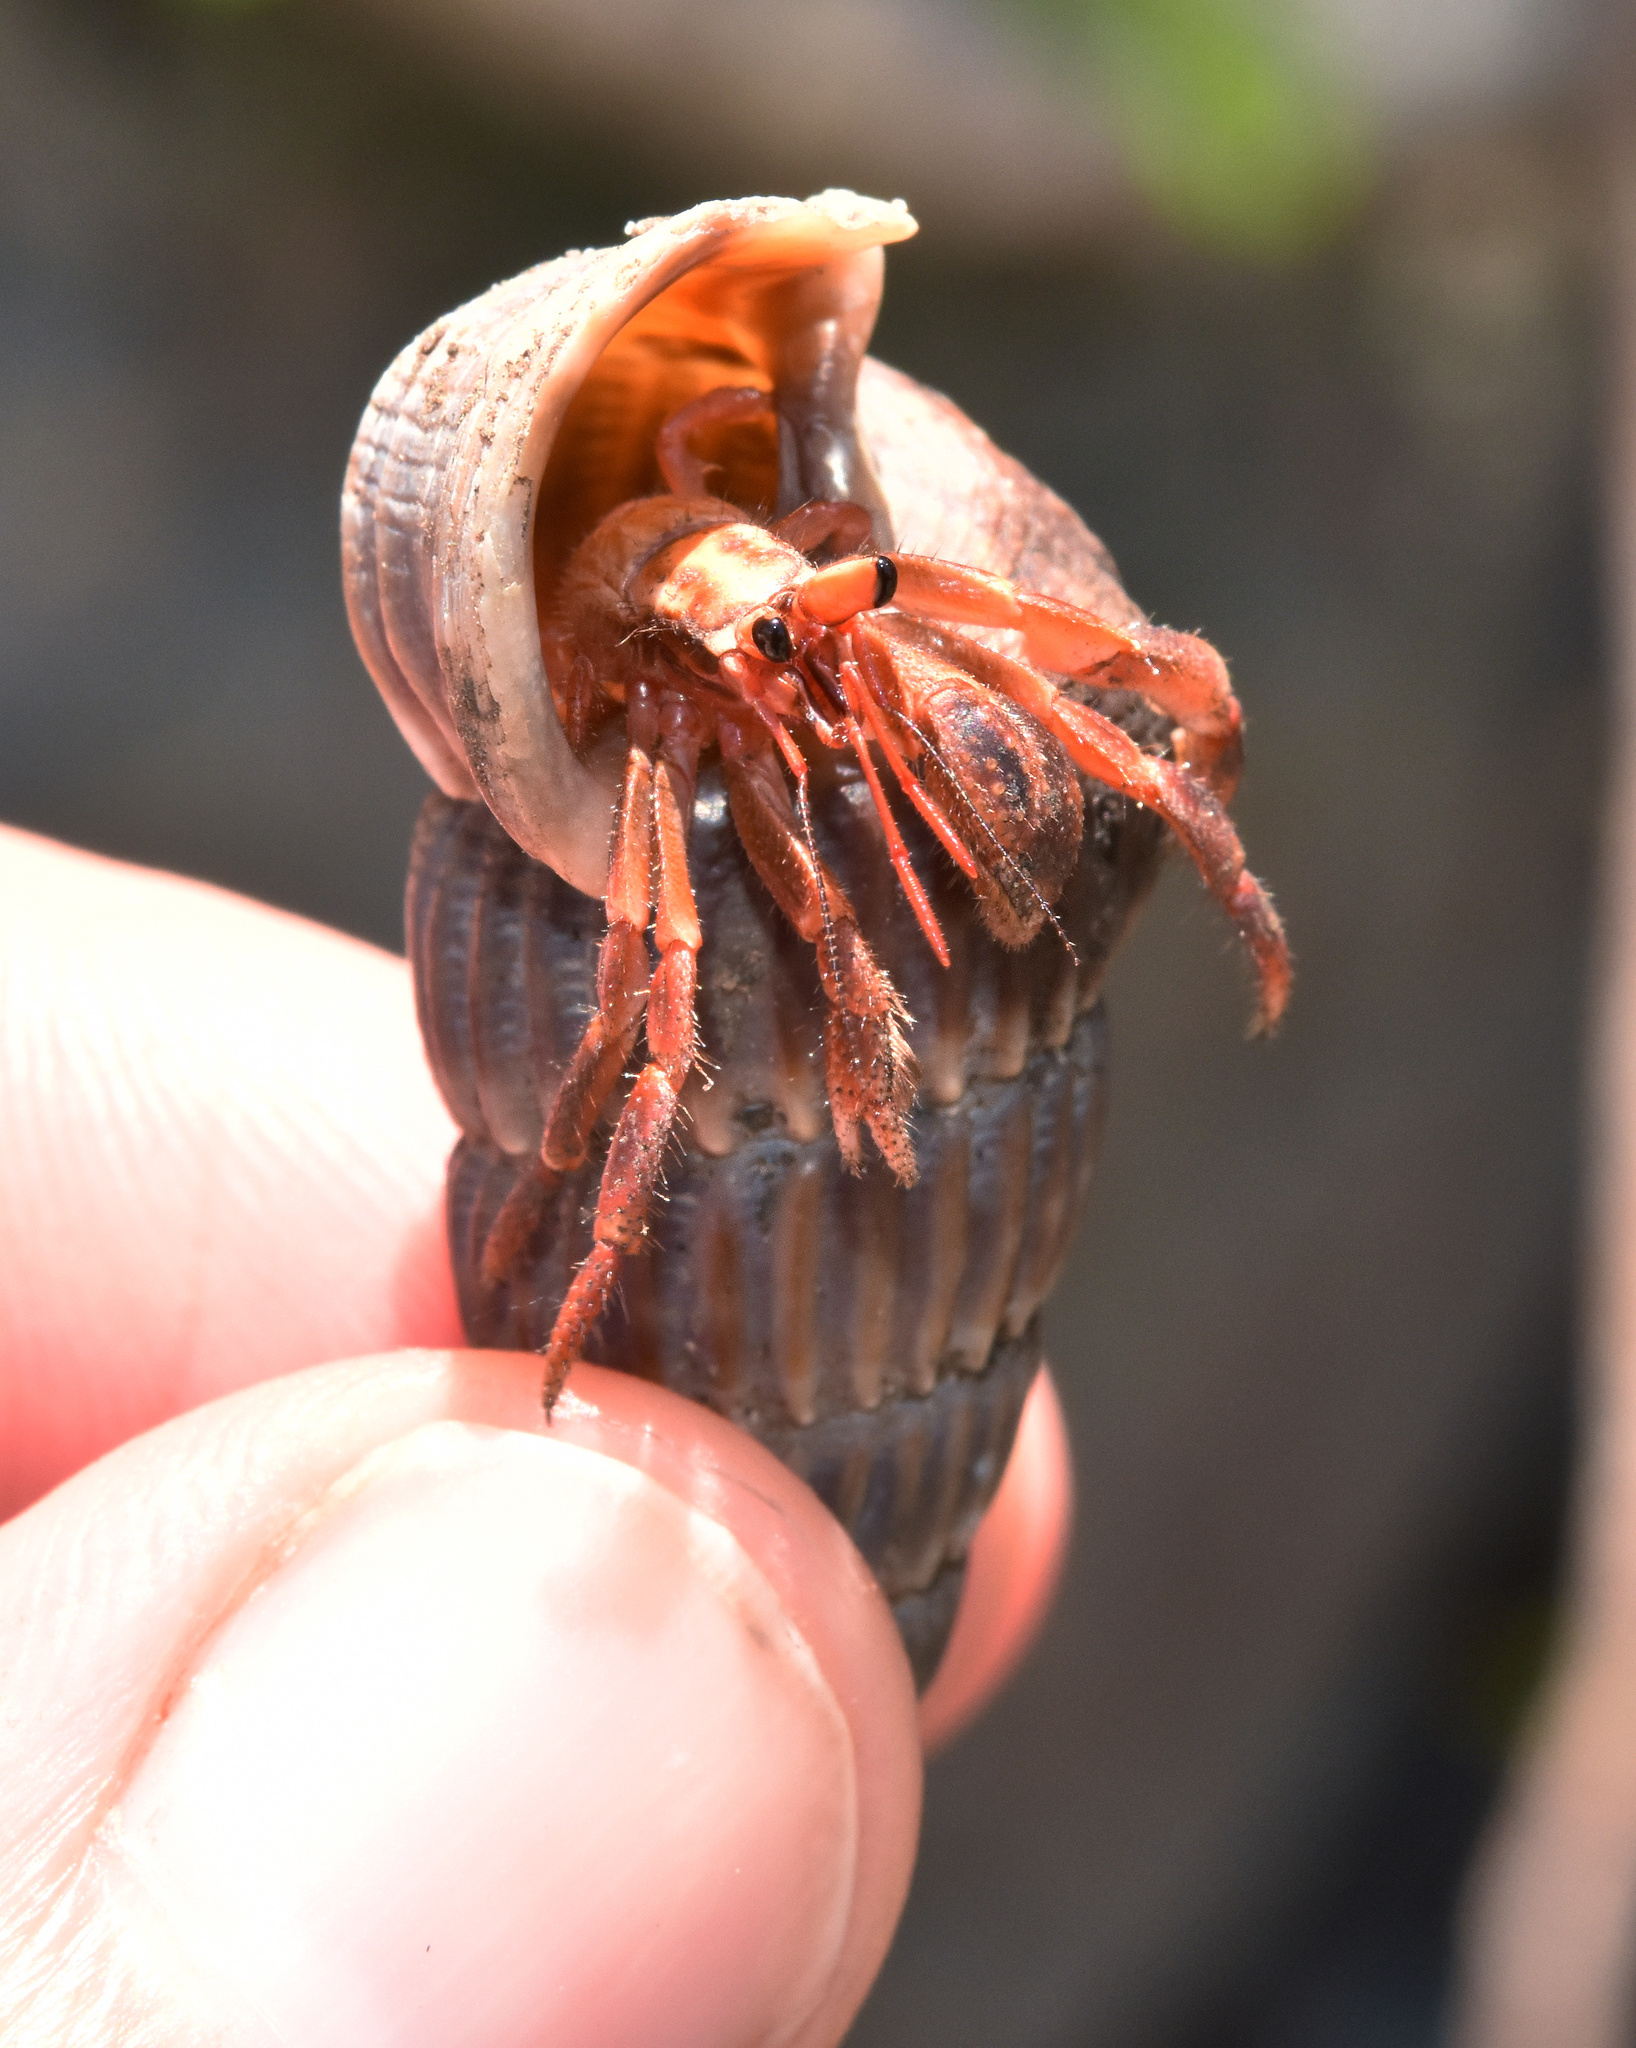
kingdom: Animalia
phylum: Arthropoda
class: Malacostraca
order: Decapoda
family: Coenobitidae
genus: Coenobita
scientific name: Coenobita violascens
